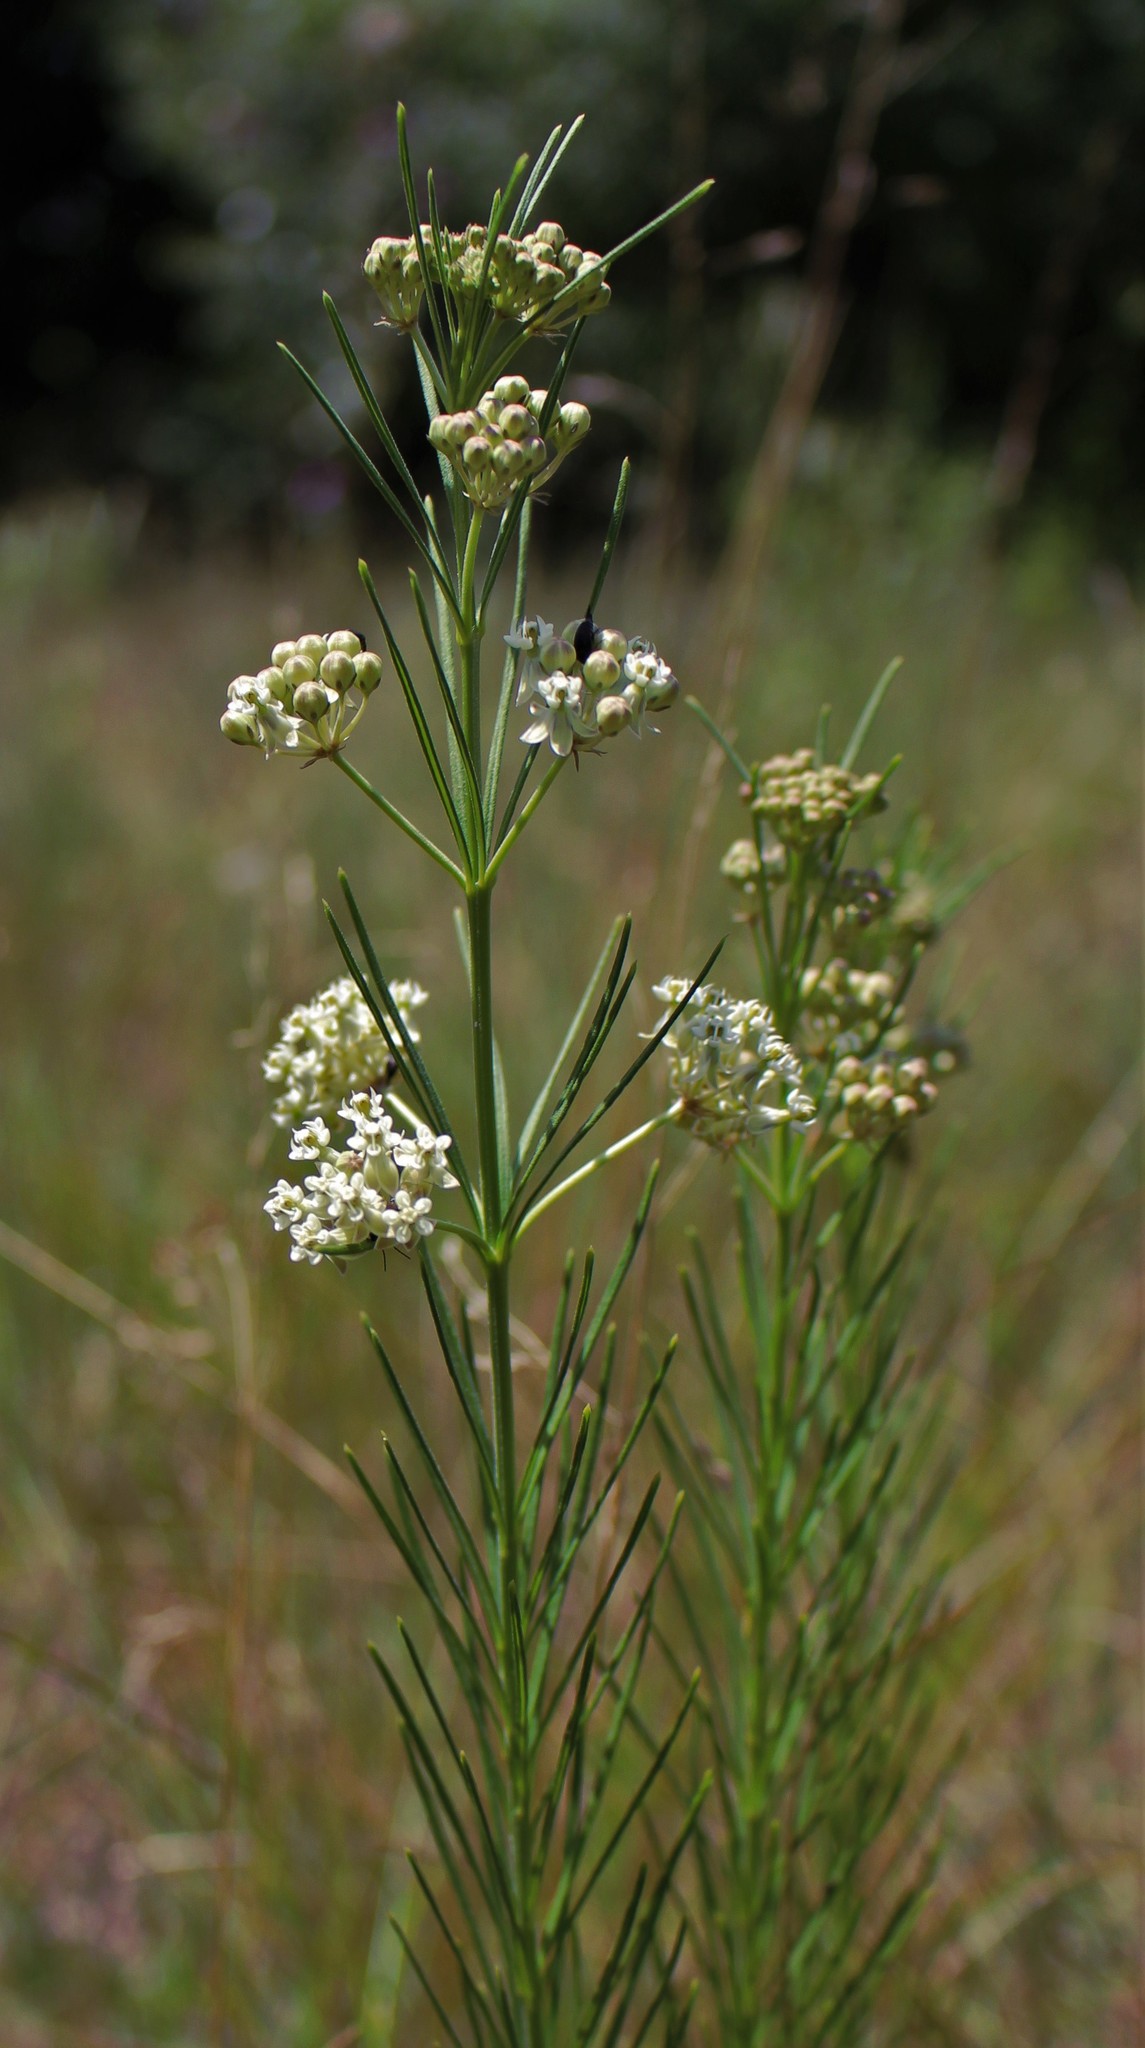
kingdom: Plantae
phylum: Tracheophyta
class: Magnoliopsida
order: Gentianales
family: Apocynaceae
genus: Asclepias
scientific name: Asclepias verticillata
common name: Eastern whorled milkweed
